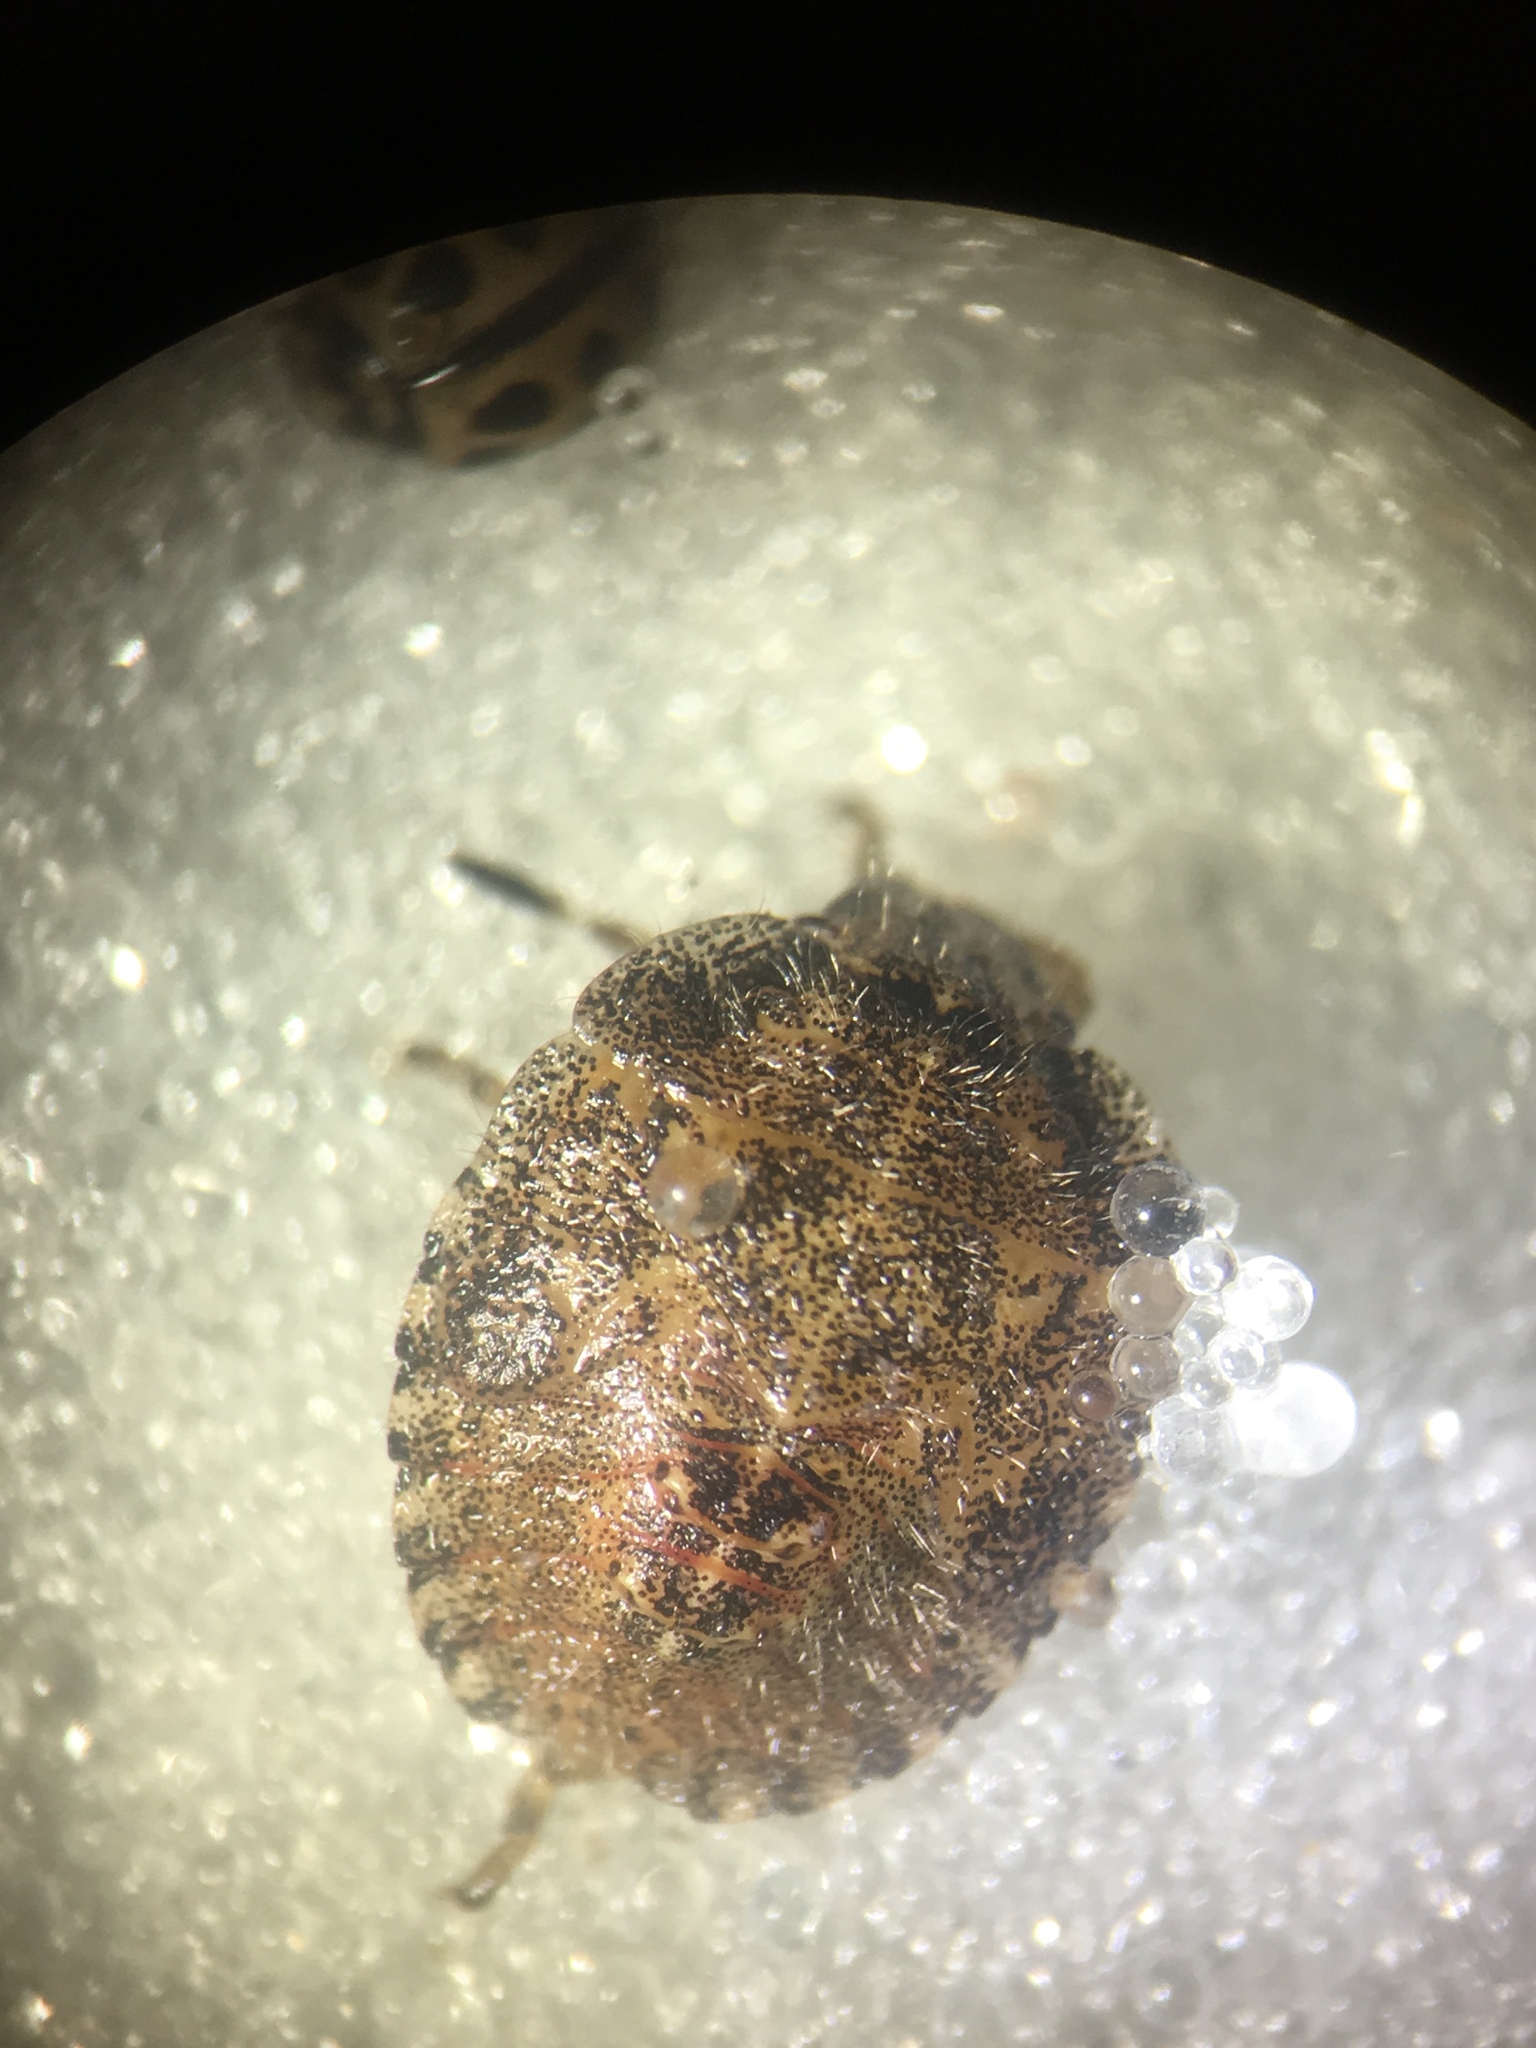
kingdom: Animalia
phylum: Arthropoda
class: Insecta
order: Hemiptera
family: Pentatomidae
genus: Dolycoris
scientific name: Dolycoris baccarum
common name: Sloe bug
